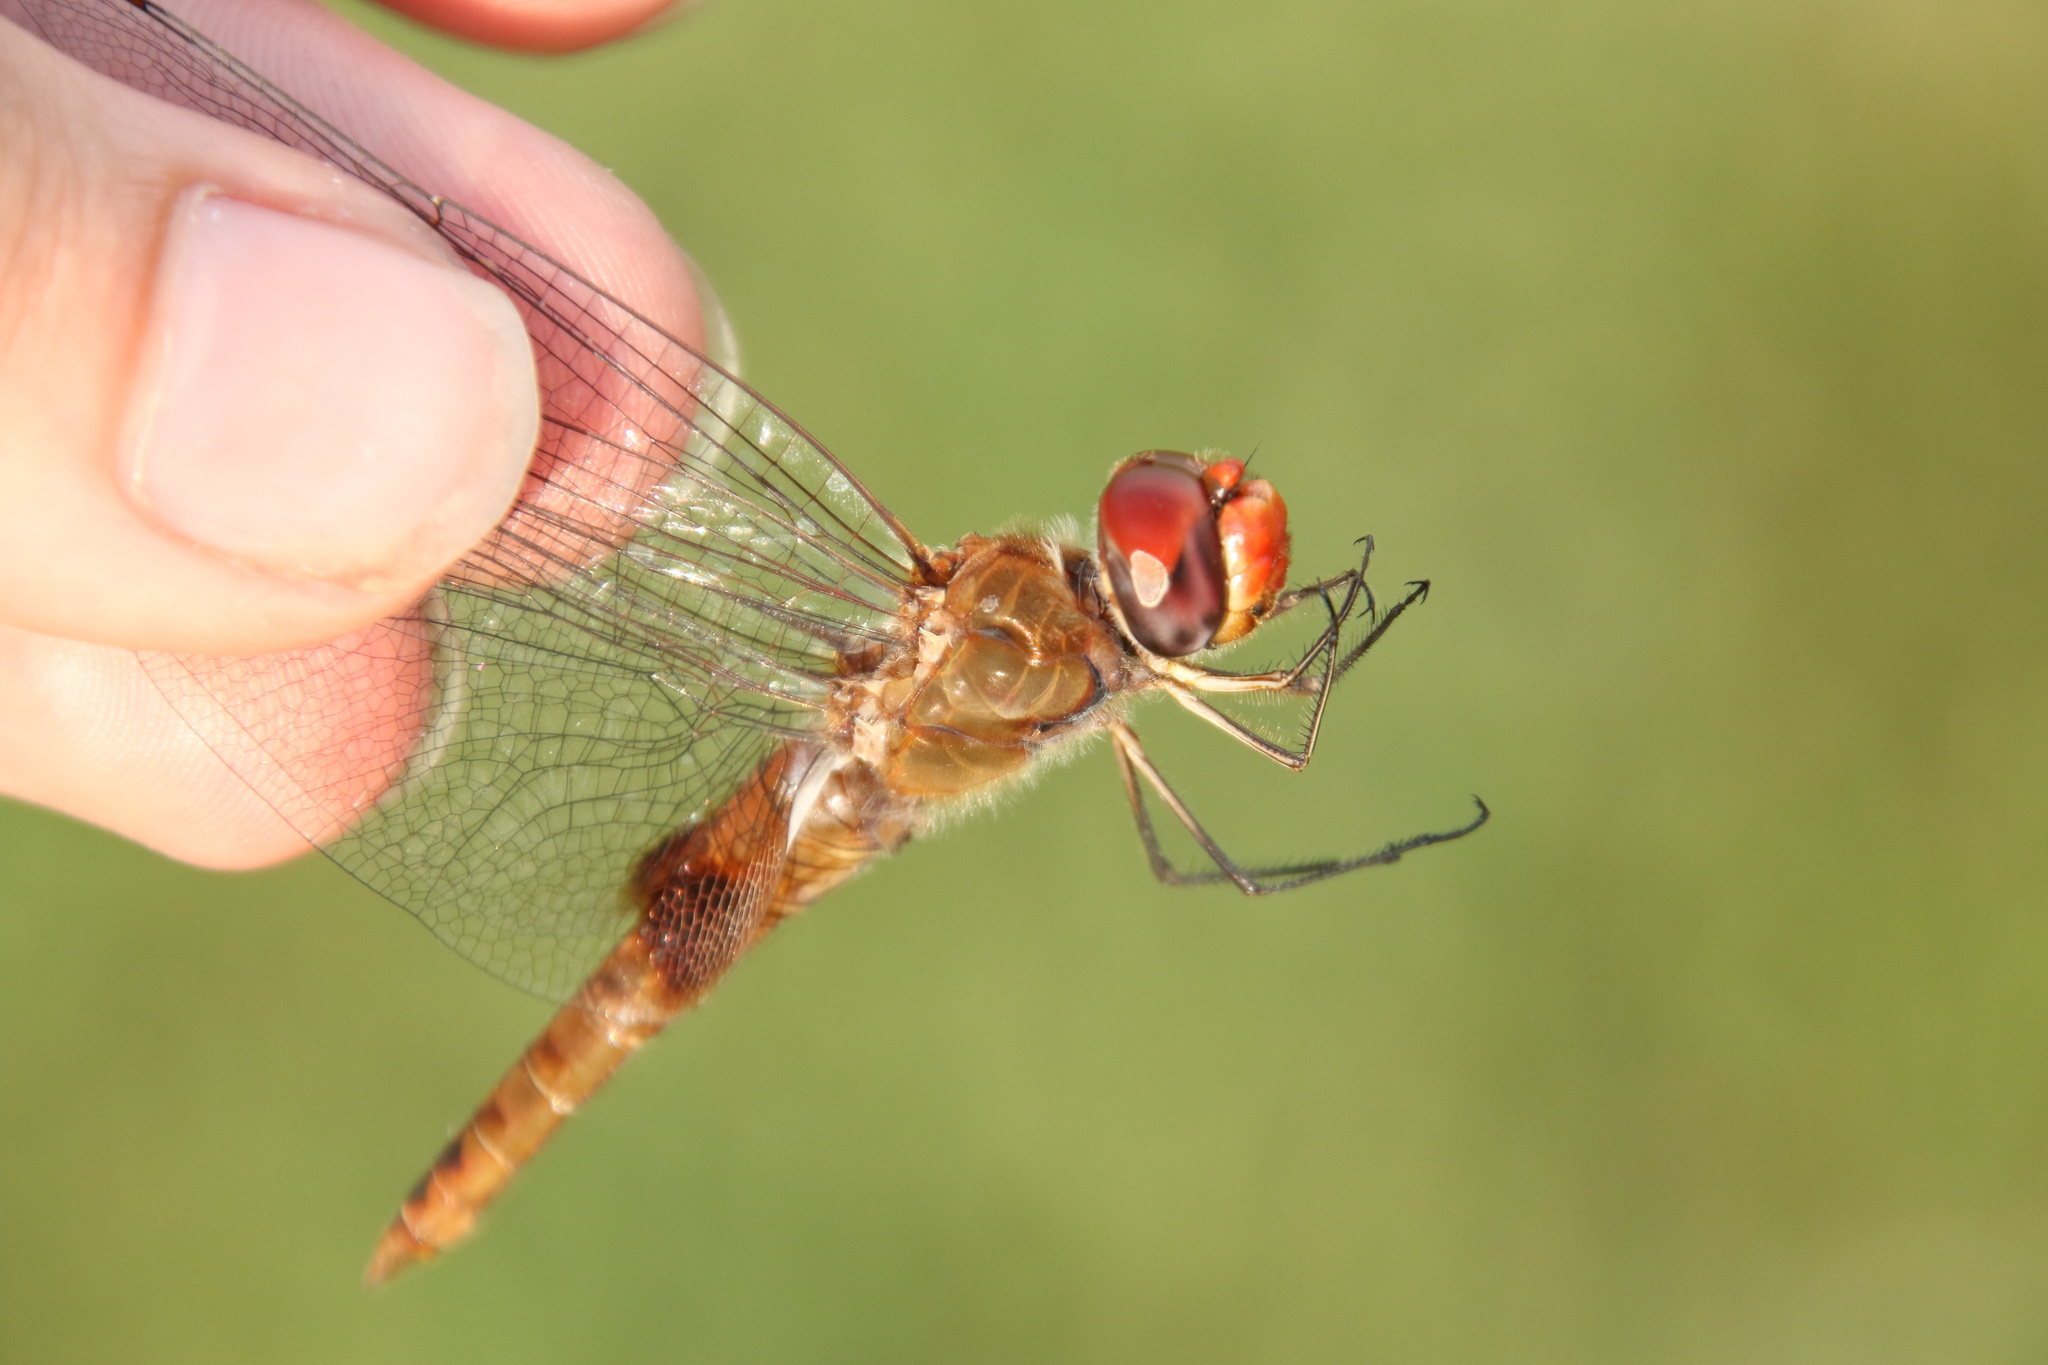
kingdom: Animalia
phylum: Arthropoda
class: Insecta
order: Odonata
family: Libellulidae
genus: Pantala
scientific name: Pantala hymenaea
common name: Spot-winged glider
